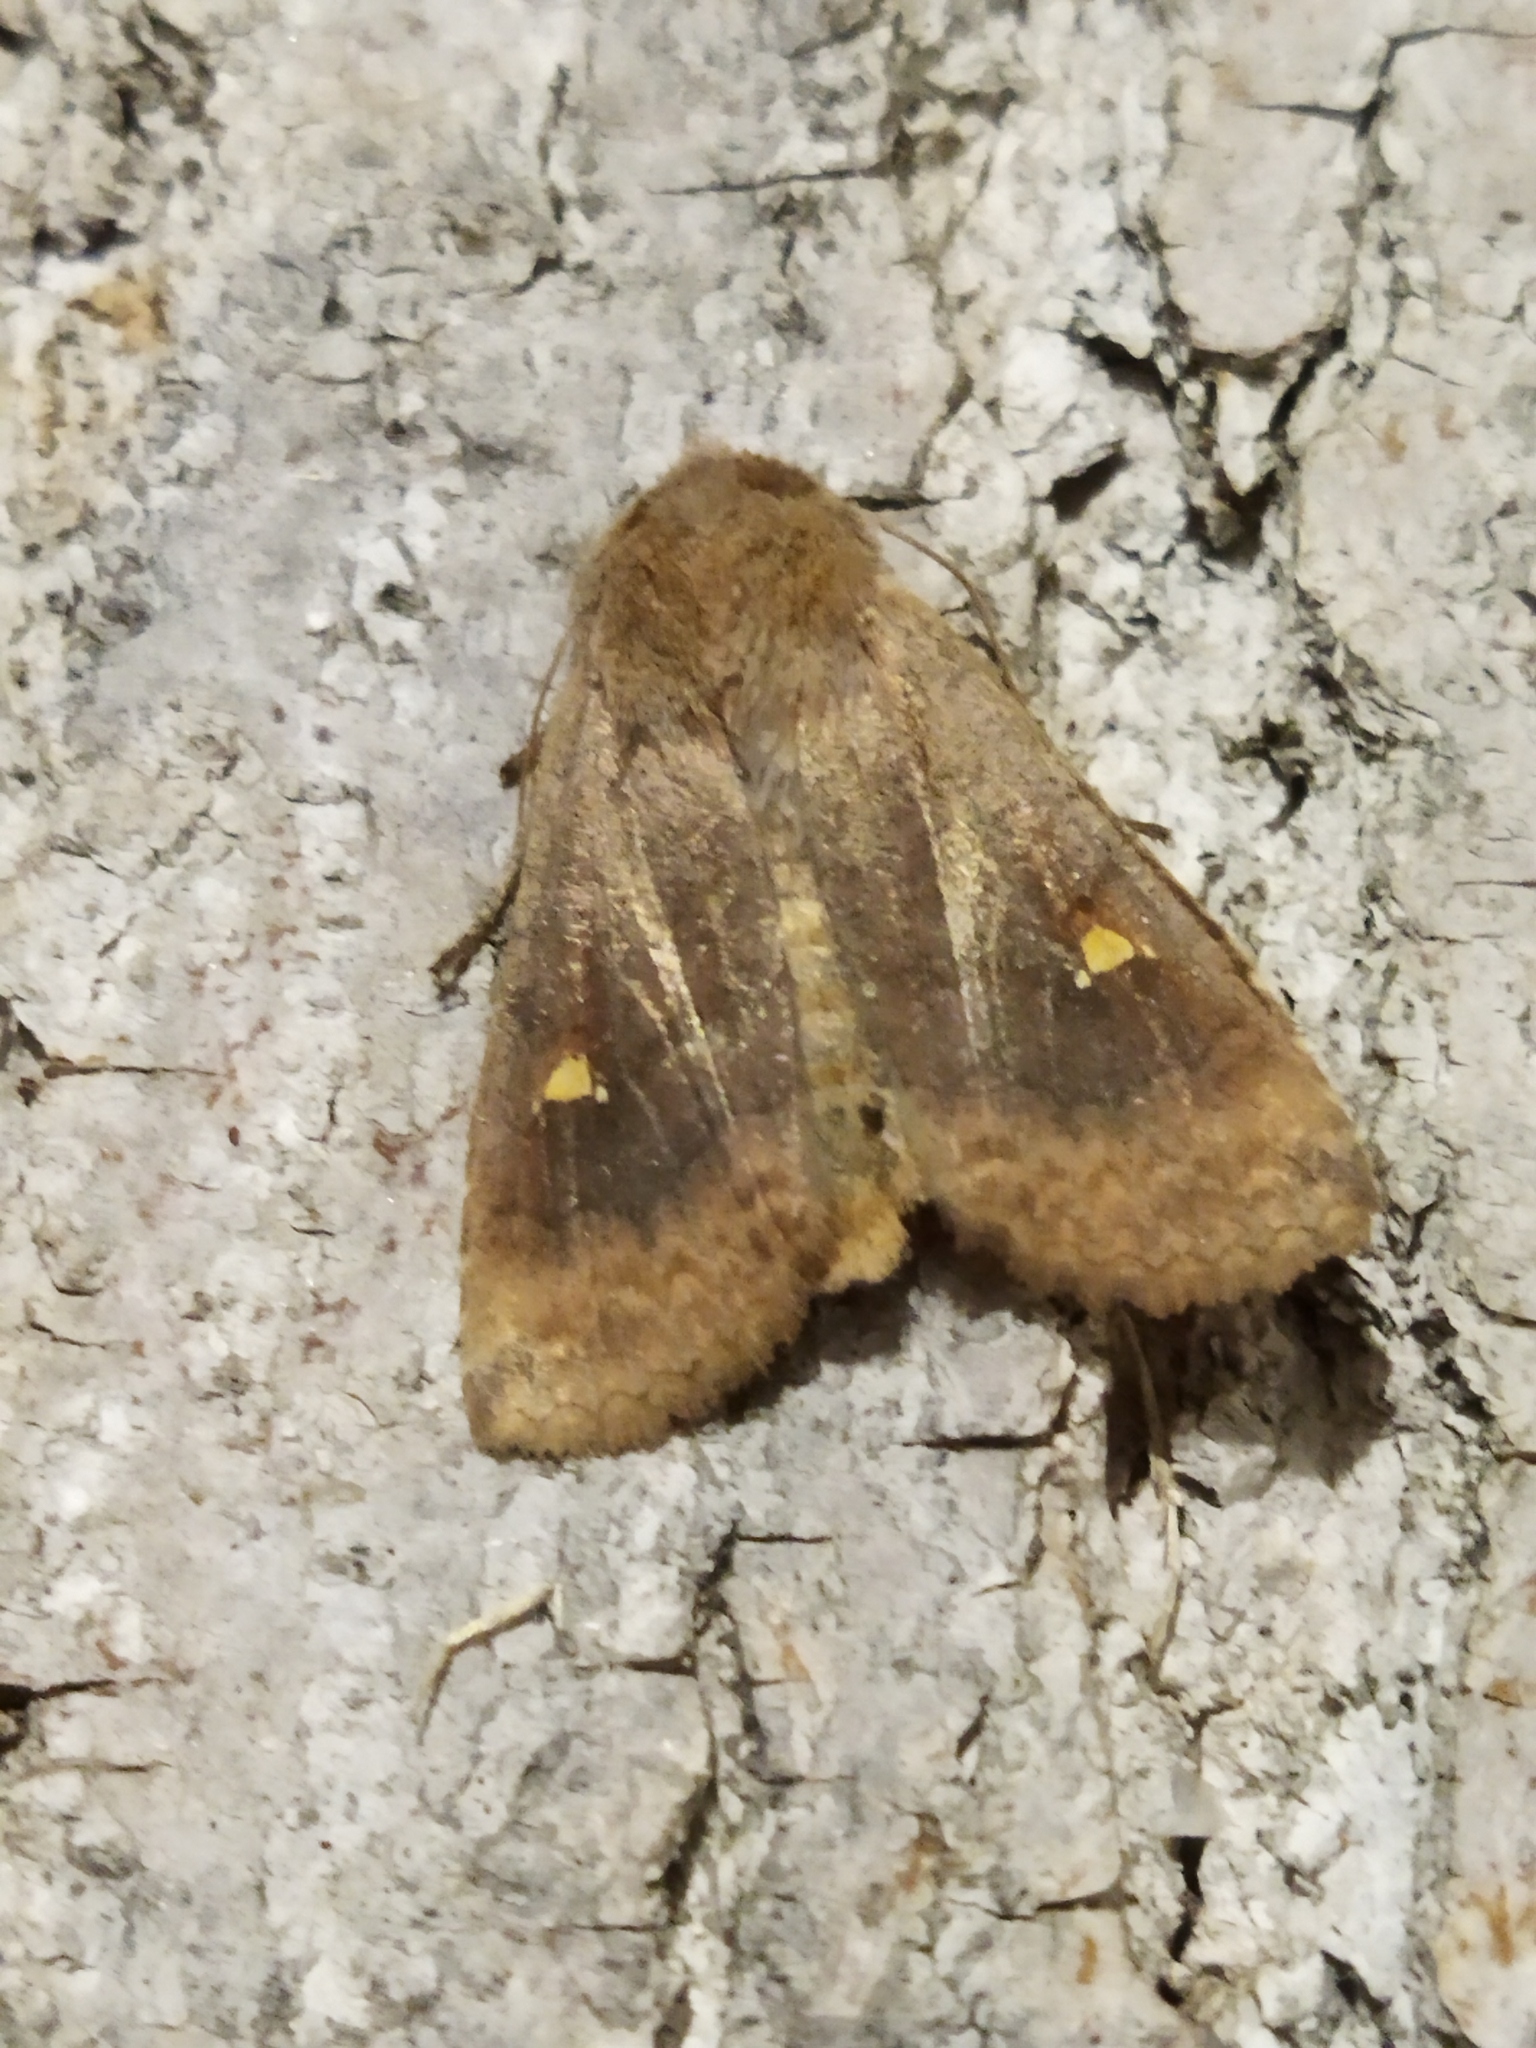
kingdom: Animalia
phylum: Arthropoda
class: Insecta
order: Lepidoptera
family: Noctuidae
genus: Eupsilia
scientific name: Eupsilia transversa
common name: Satellite
